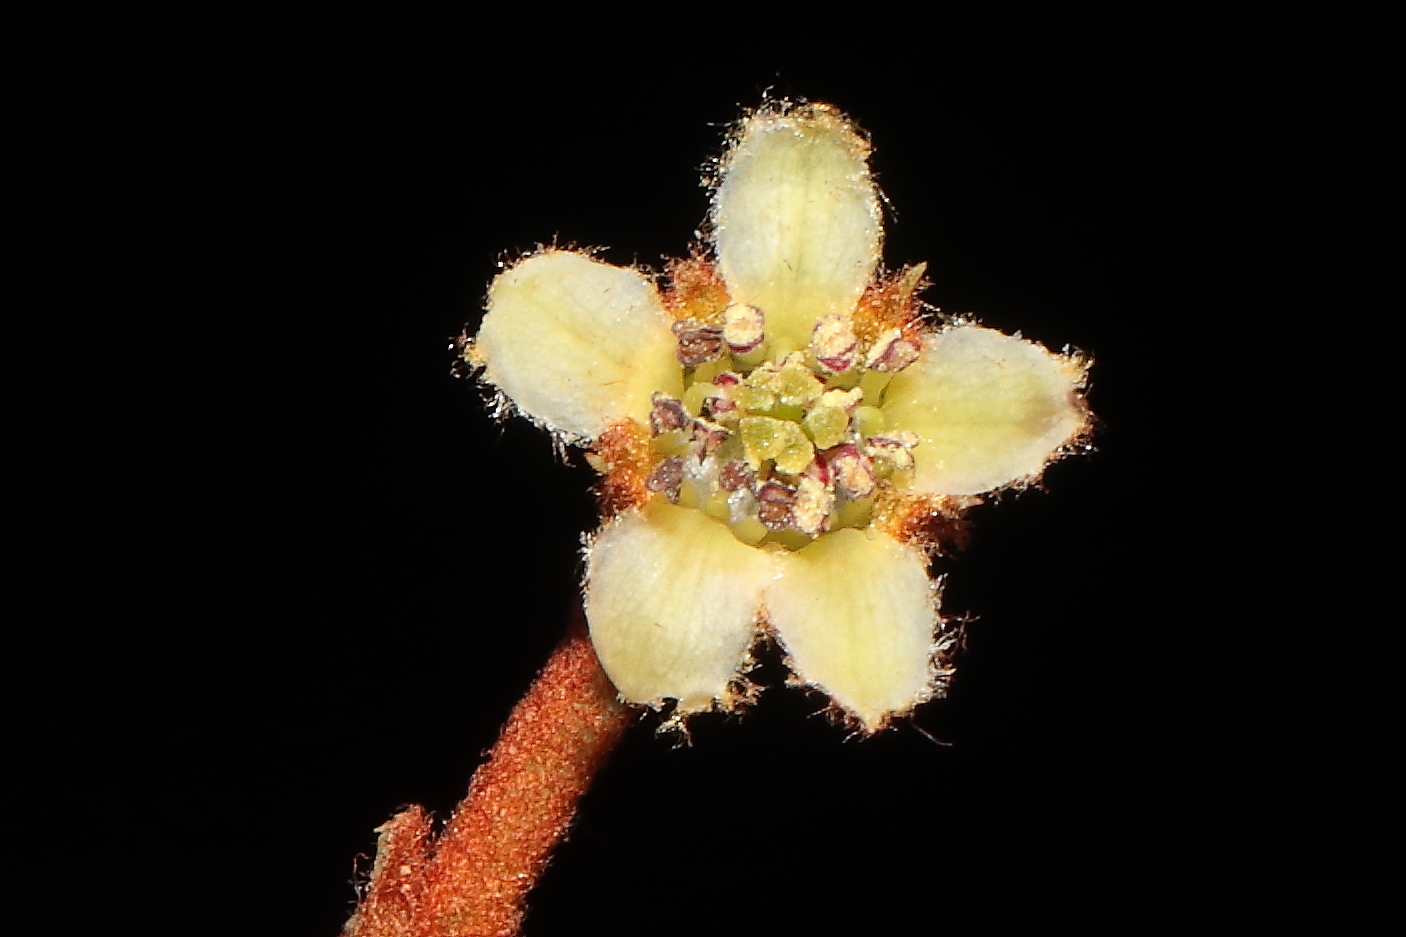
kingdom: Plantae
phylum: Tracheophyta
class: Magnoliopsida
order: Rosales
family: Rosaceae
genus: Hesperomeles
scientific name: Hesperomeles ferruginea
